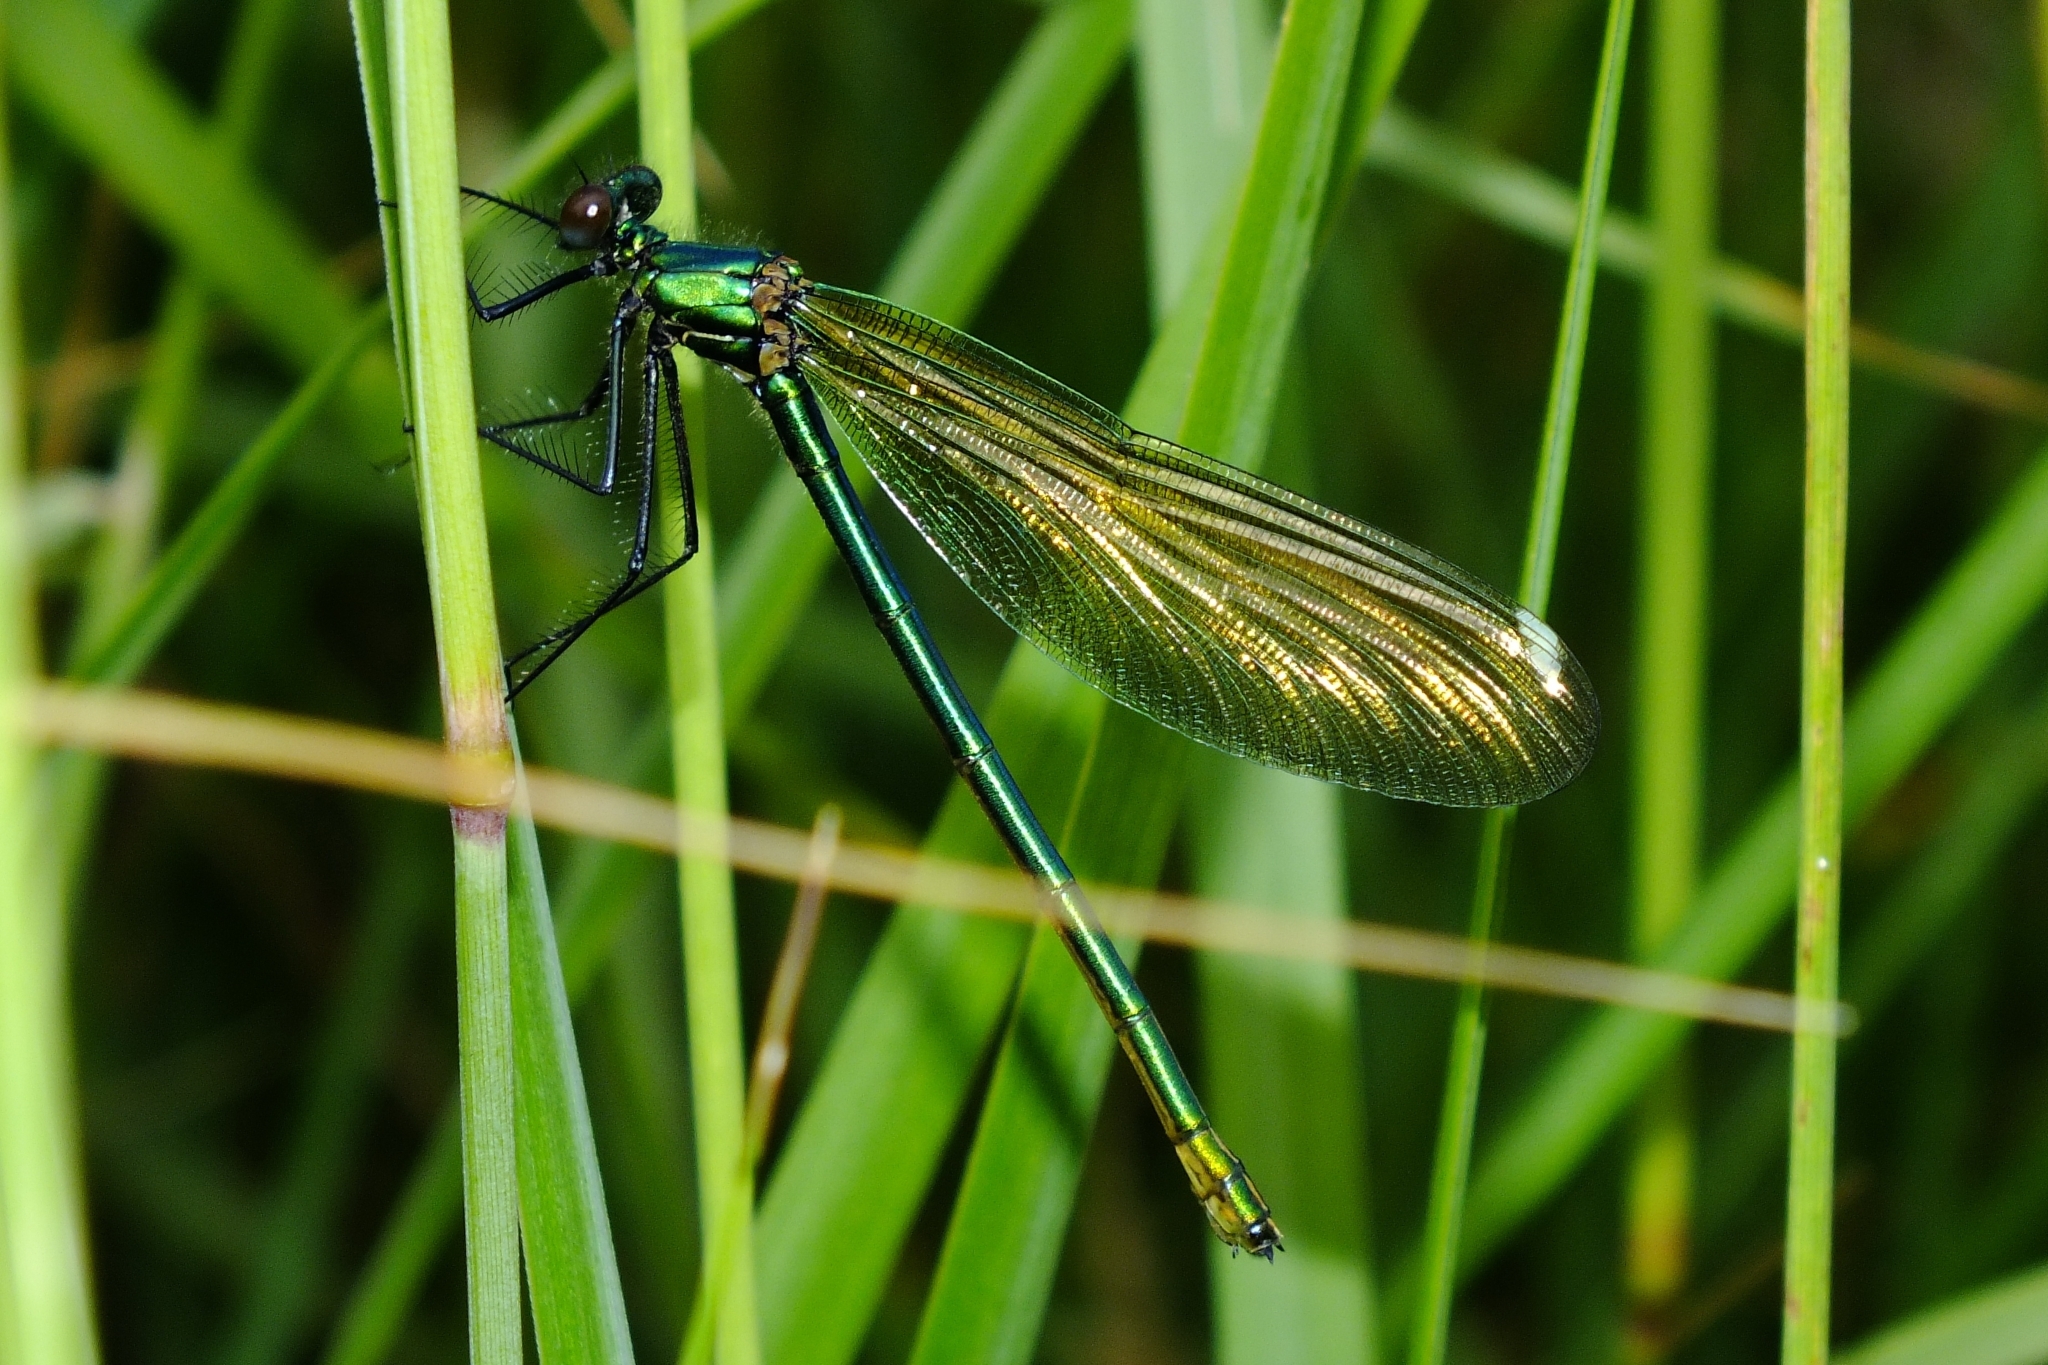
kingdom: Animalia
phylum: Arthropoda
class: Insecta
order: Odonata
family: Calopterygidae
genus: Calopteryx
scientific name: Calopteryx splendens
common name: Banded demoiselle
